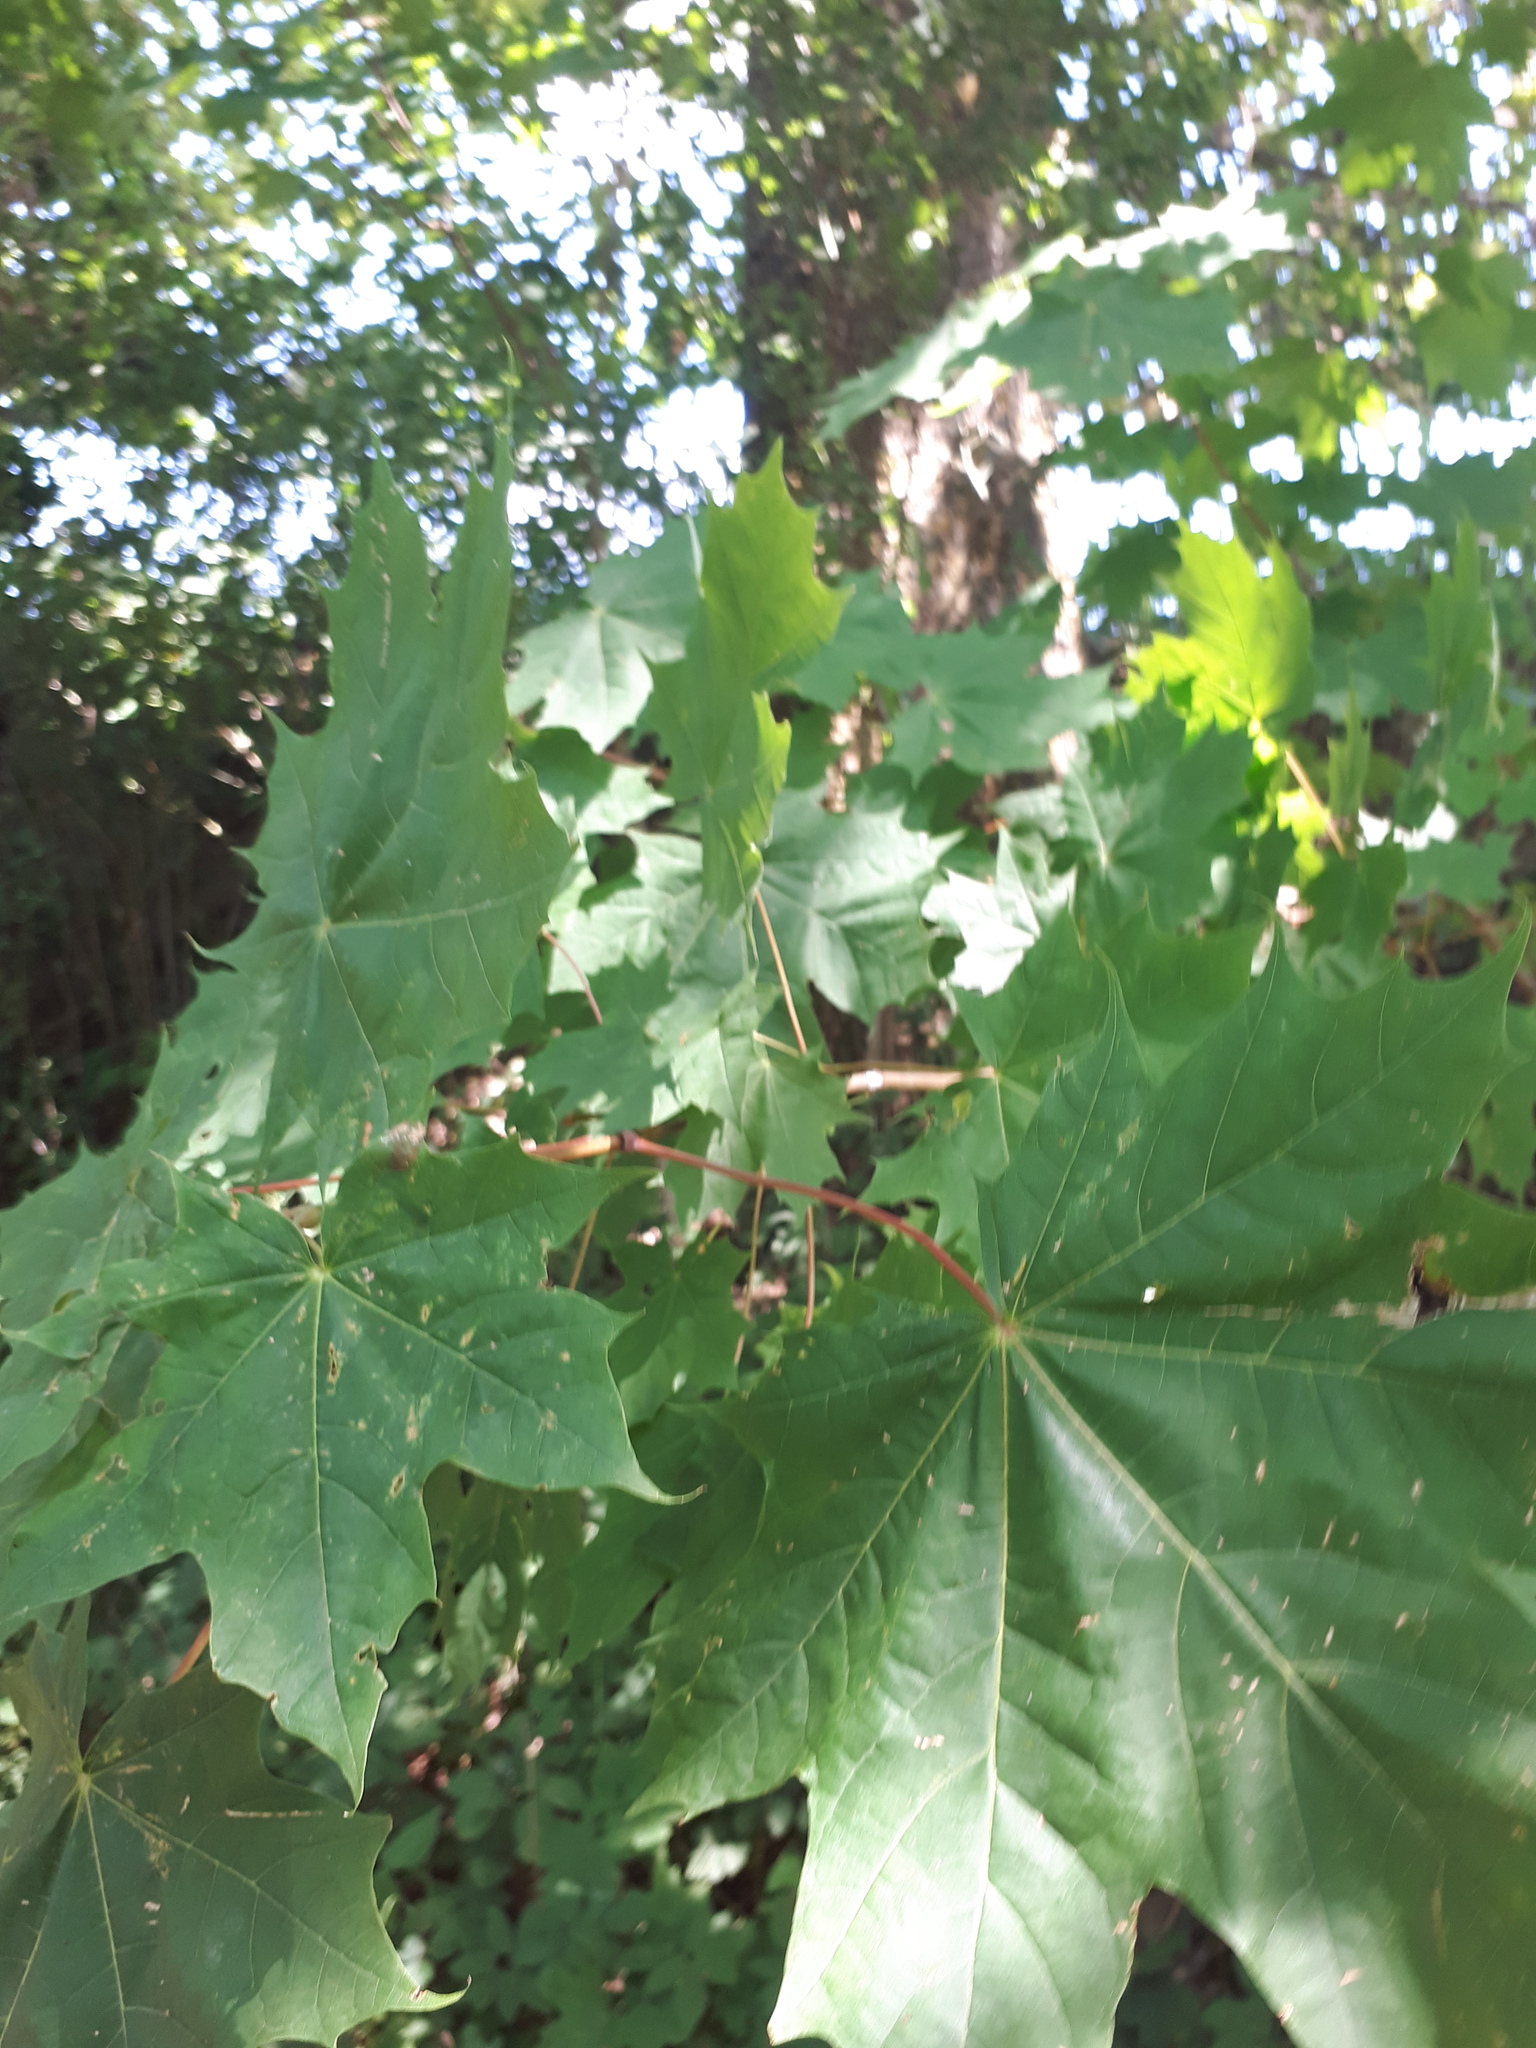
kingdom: Plantae
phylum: Tracheophyta
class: Magnoliopsida
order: Sapindales
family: Sapindaceae
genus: Acer
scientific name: Acer platanoides
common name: Norway maple
